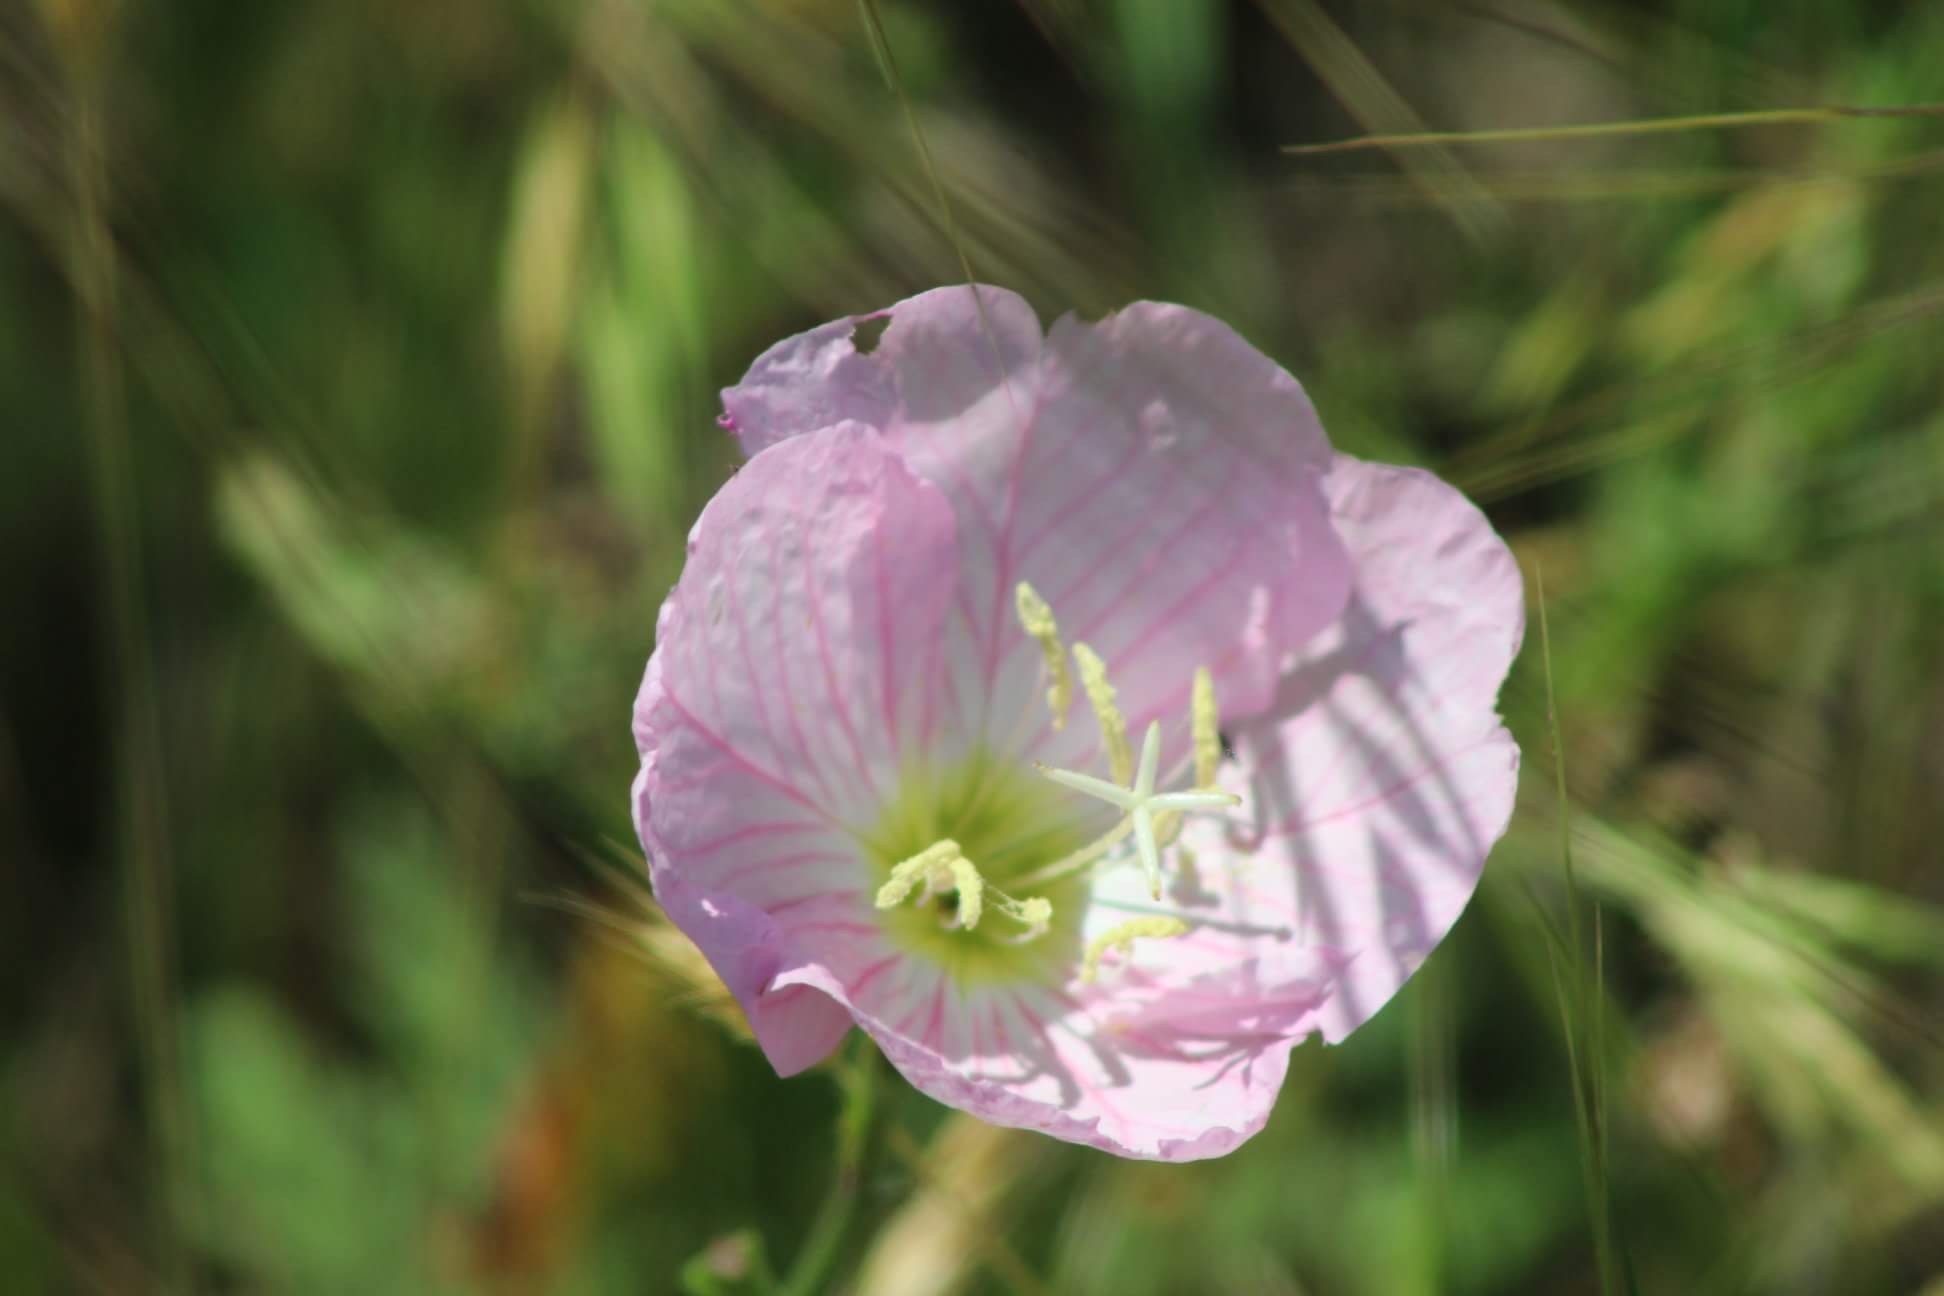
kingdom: Plantae
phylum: Tracheophyta
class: Magnoliopsida
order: Myrtales
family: Onagraceae
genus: Oenothera
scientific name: Oenothera speciosa
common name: White evening-primrose
